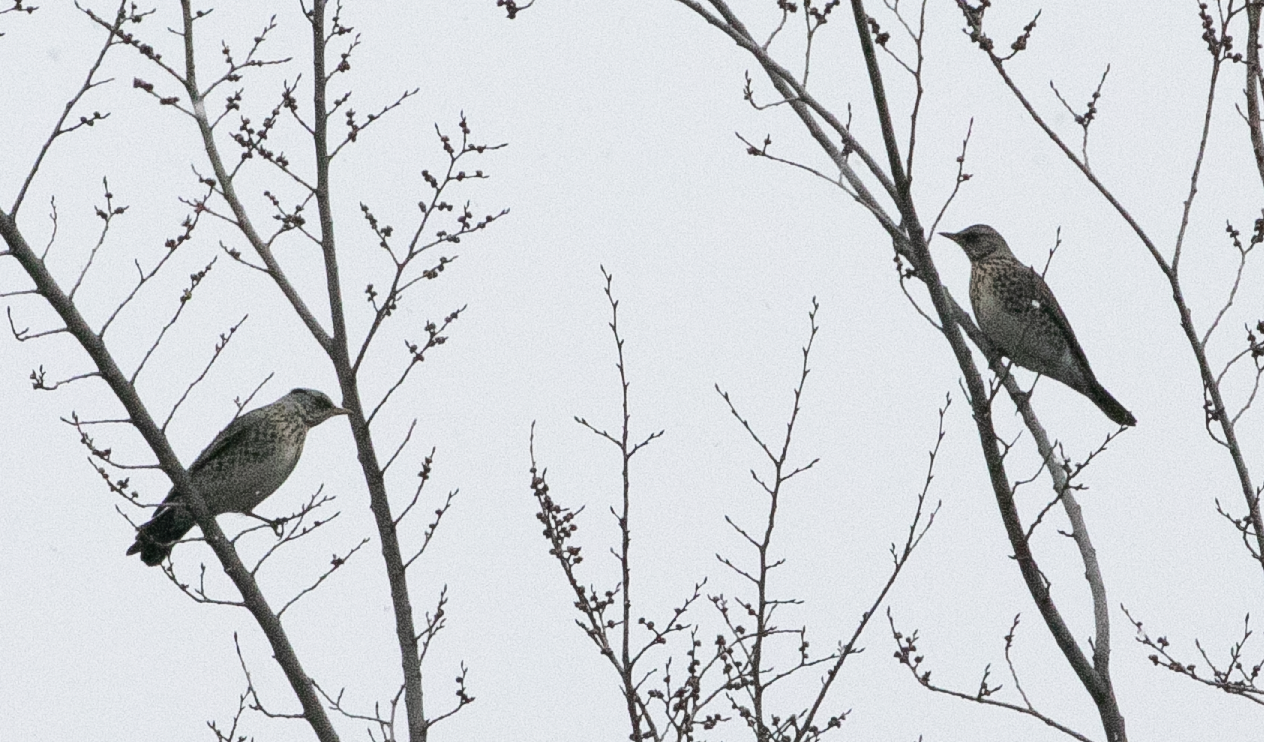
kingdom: Animalia
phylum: Chordata
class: Aves
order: Passeriformes
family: Turdidae
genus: Turdus
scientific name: Turdus pilaris
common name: Fieldfare
